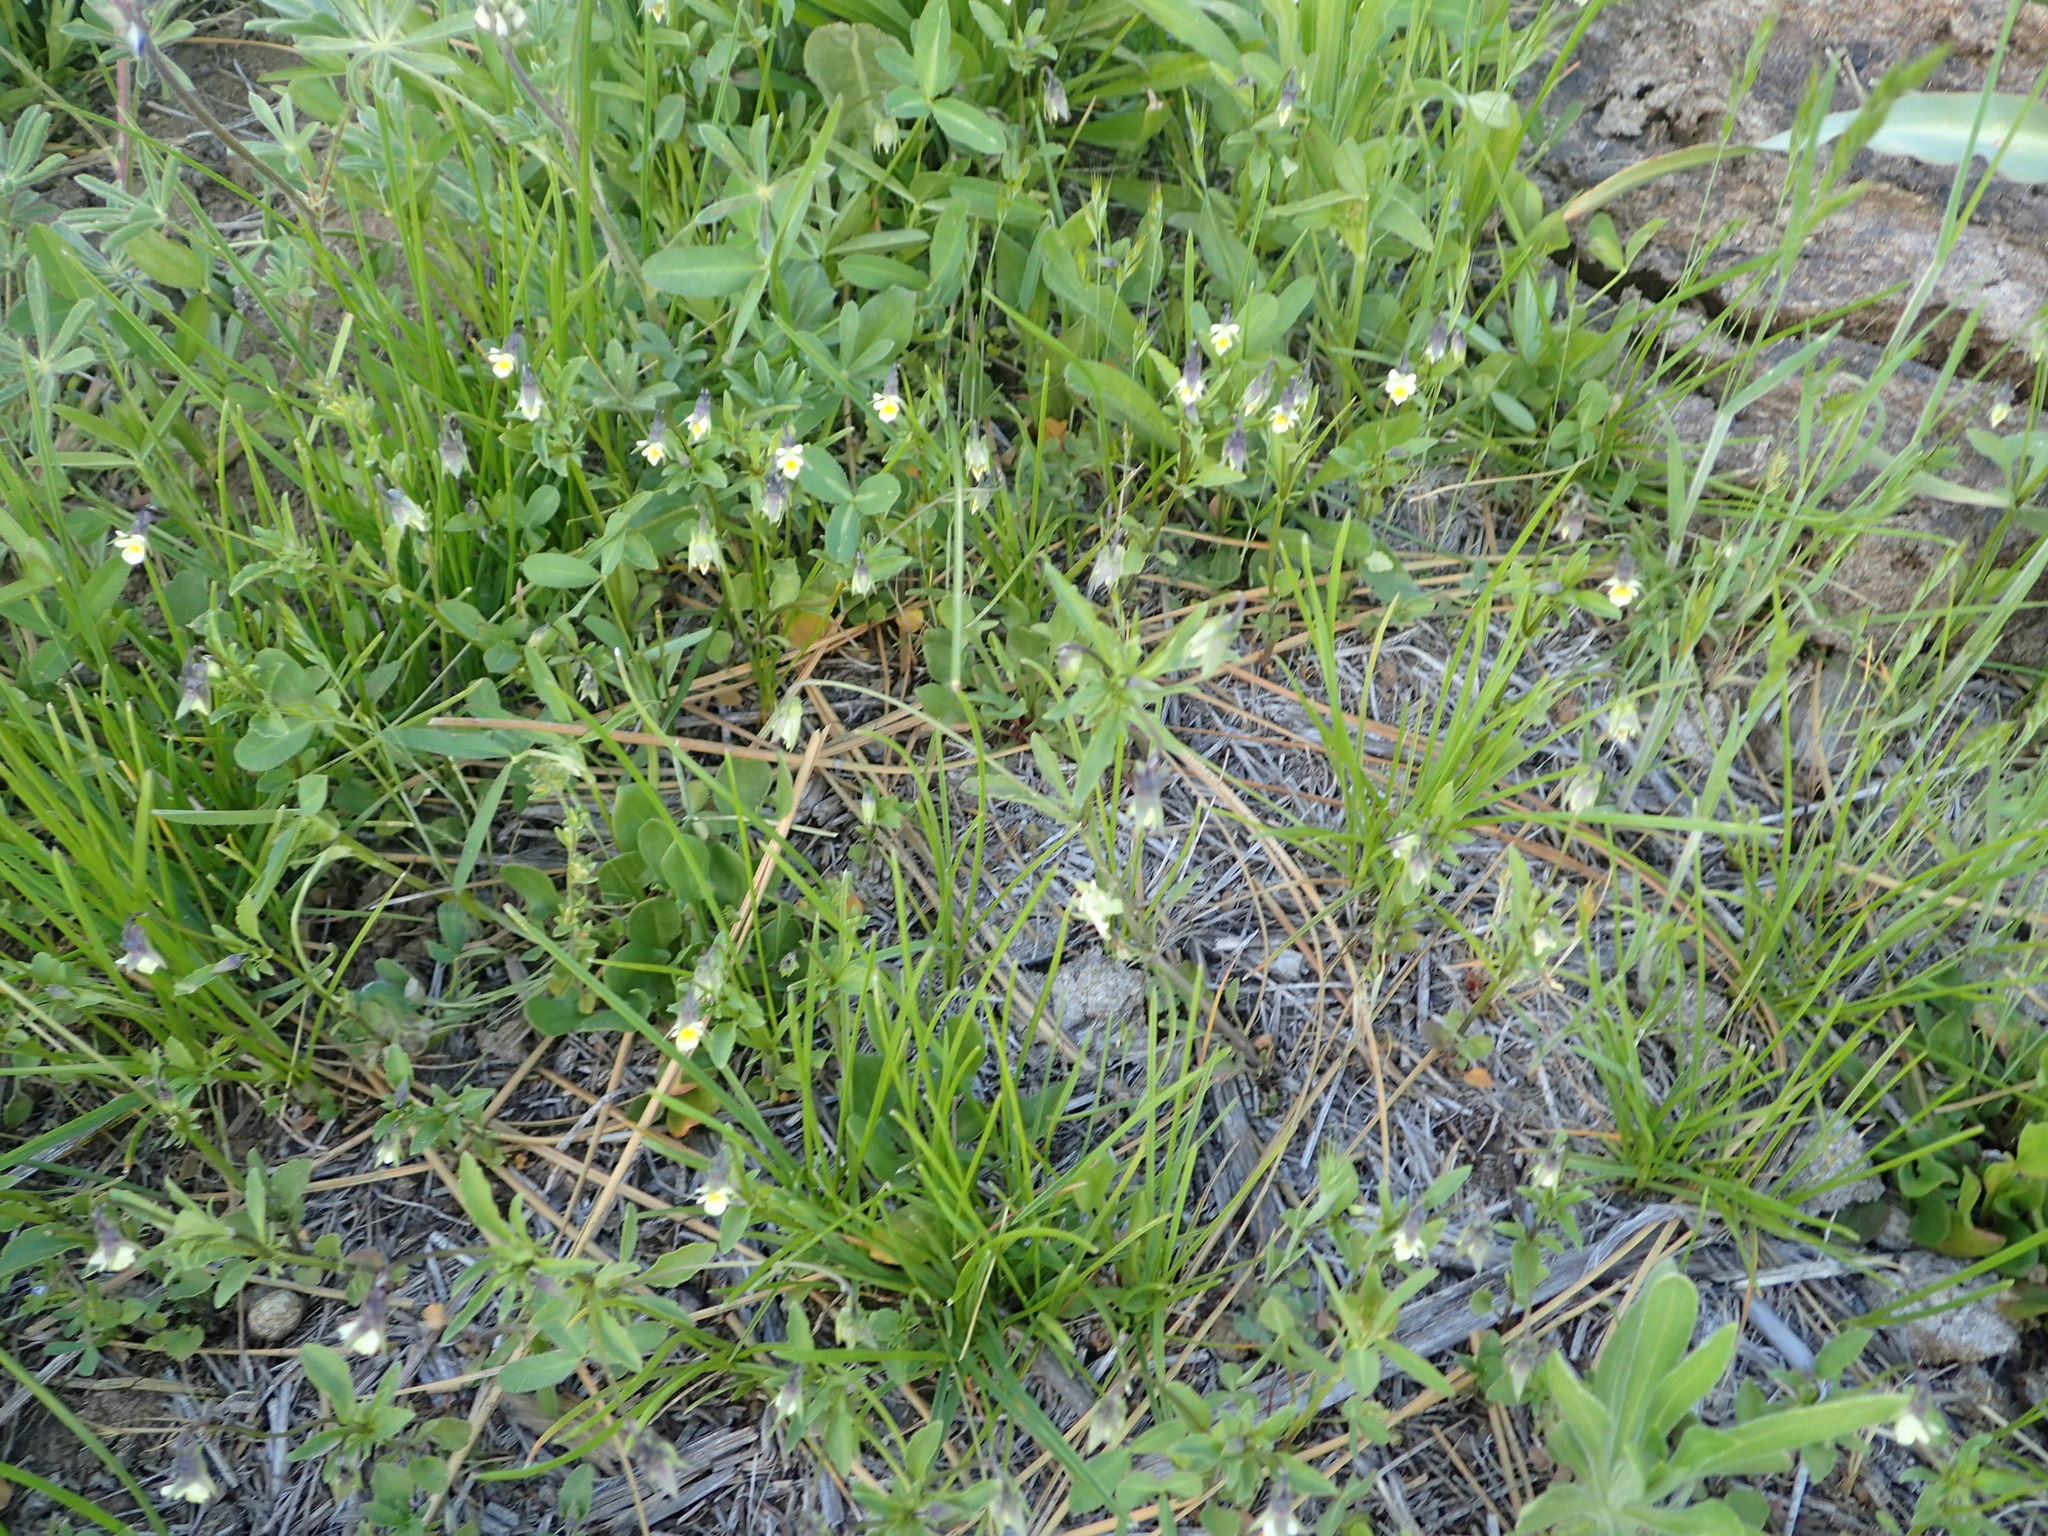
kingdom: Plantae
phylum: Tracheophyta
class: Magnoliopsida
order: Malpighiales
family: Violaceae
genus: Viola
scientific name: Viola arvensis
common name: Field pansy
